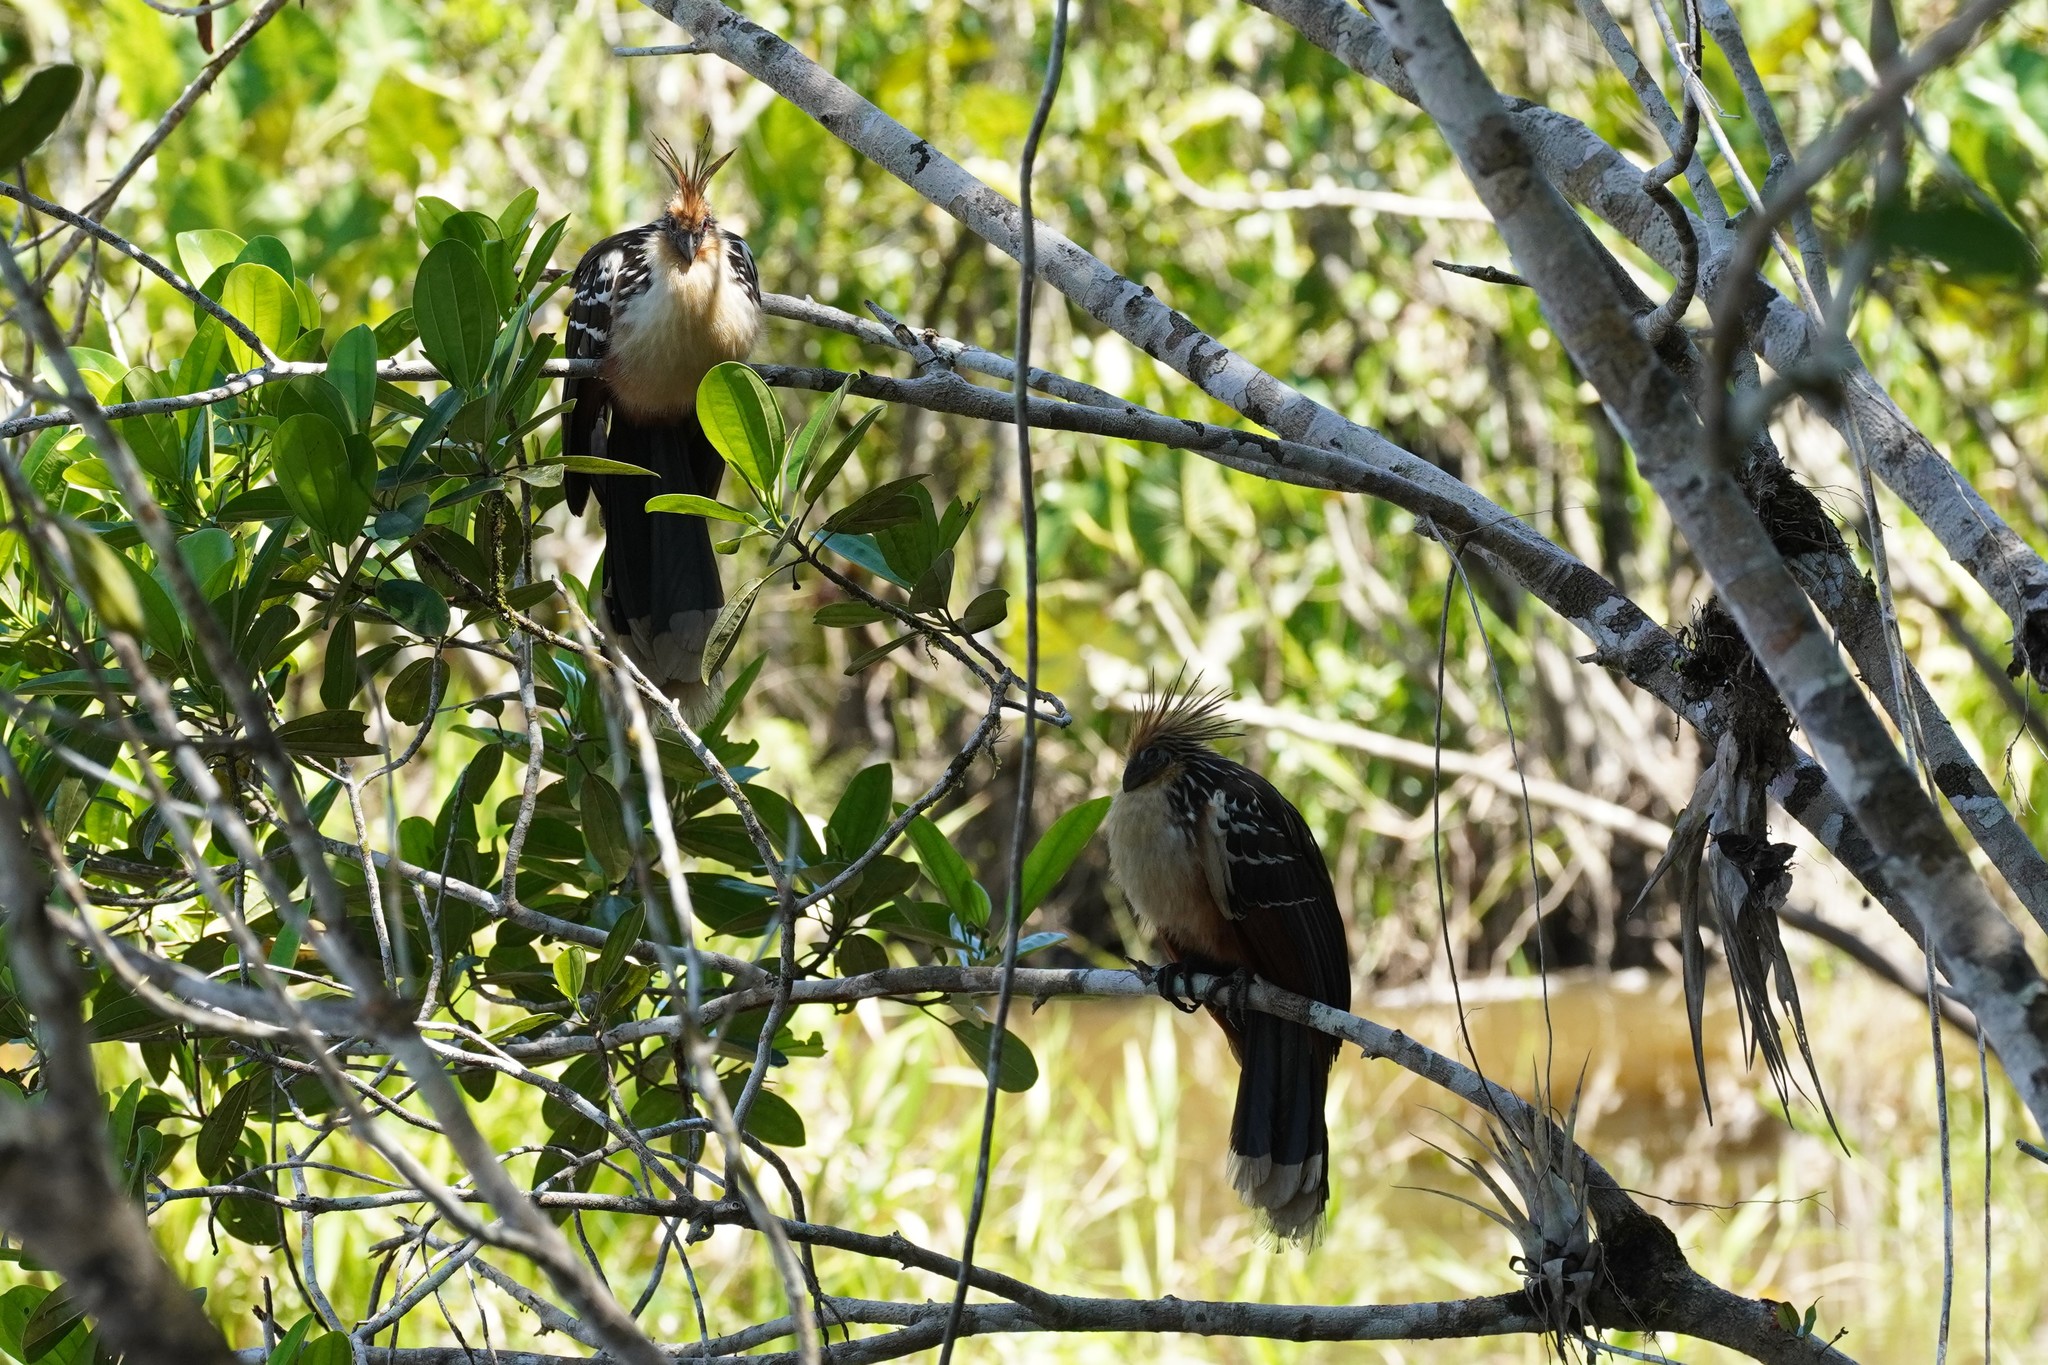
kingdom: Animalia
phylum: Chordata
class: Aves
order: Opisthocomiformes
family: Opisthocomidae
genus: Opisthocomus
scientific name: Opisthocomus hoazin
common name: Hoatzin
